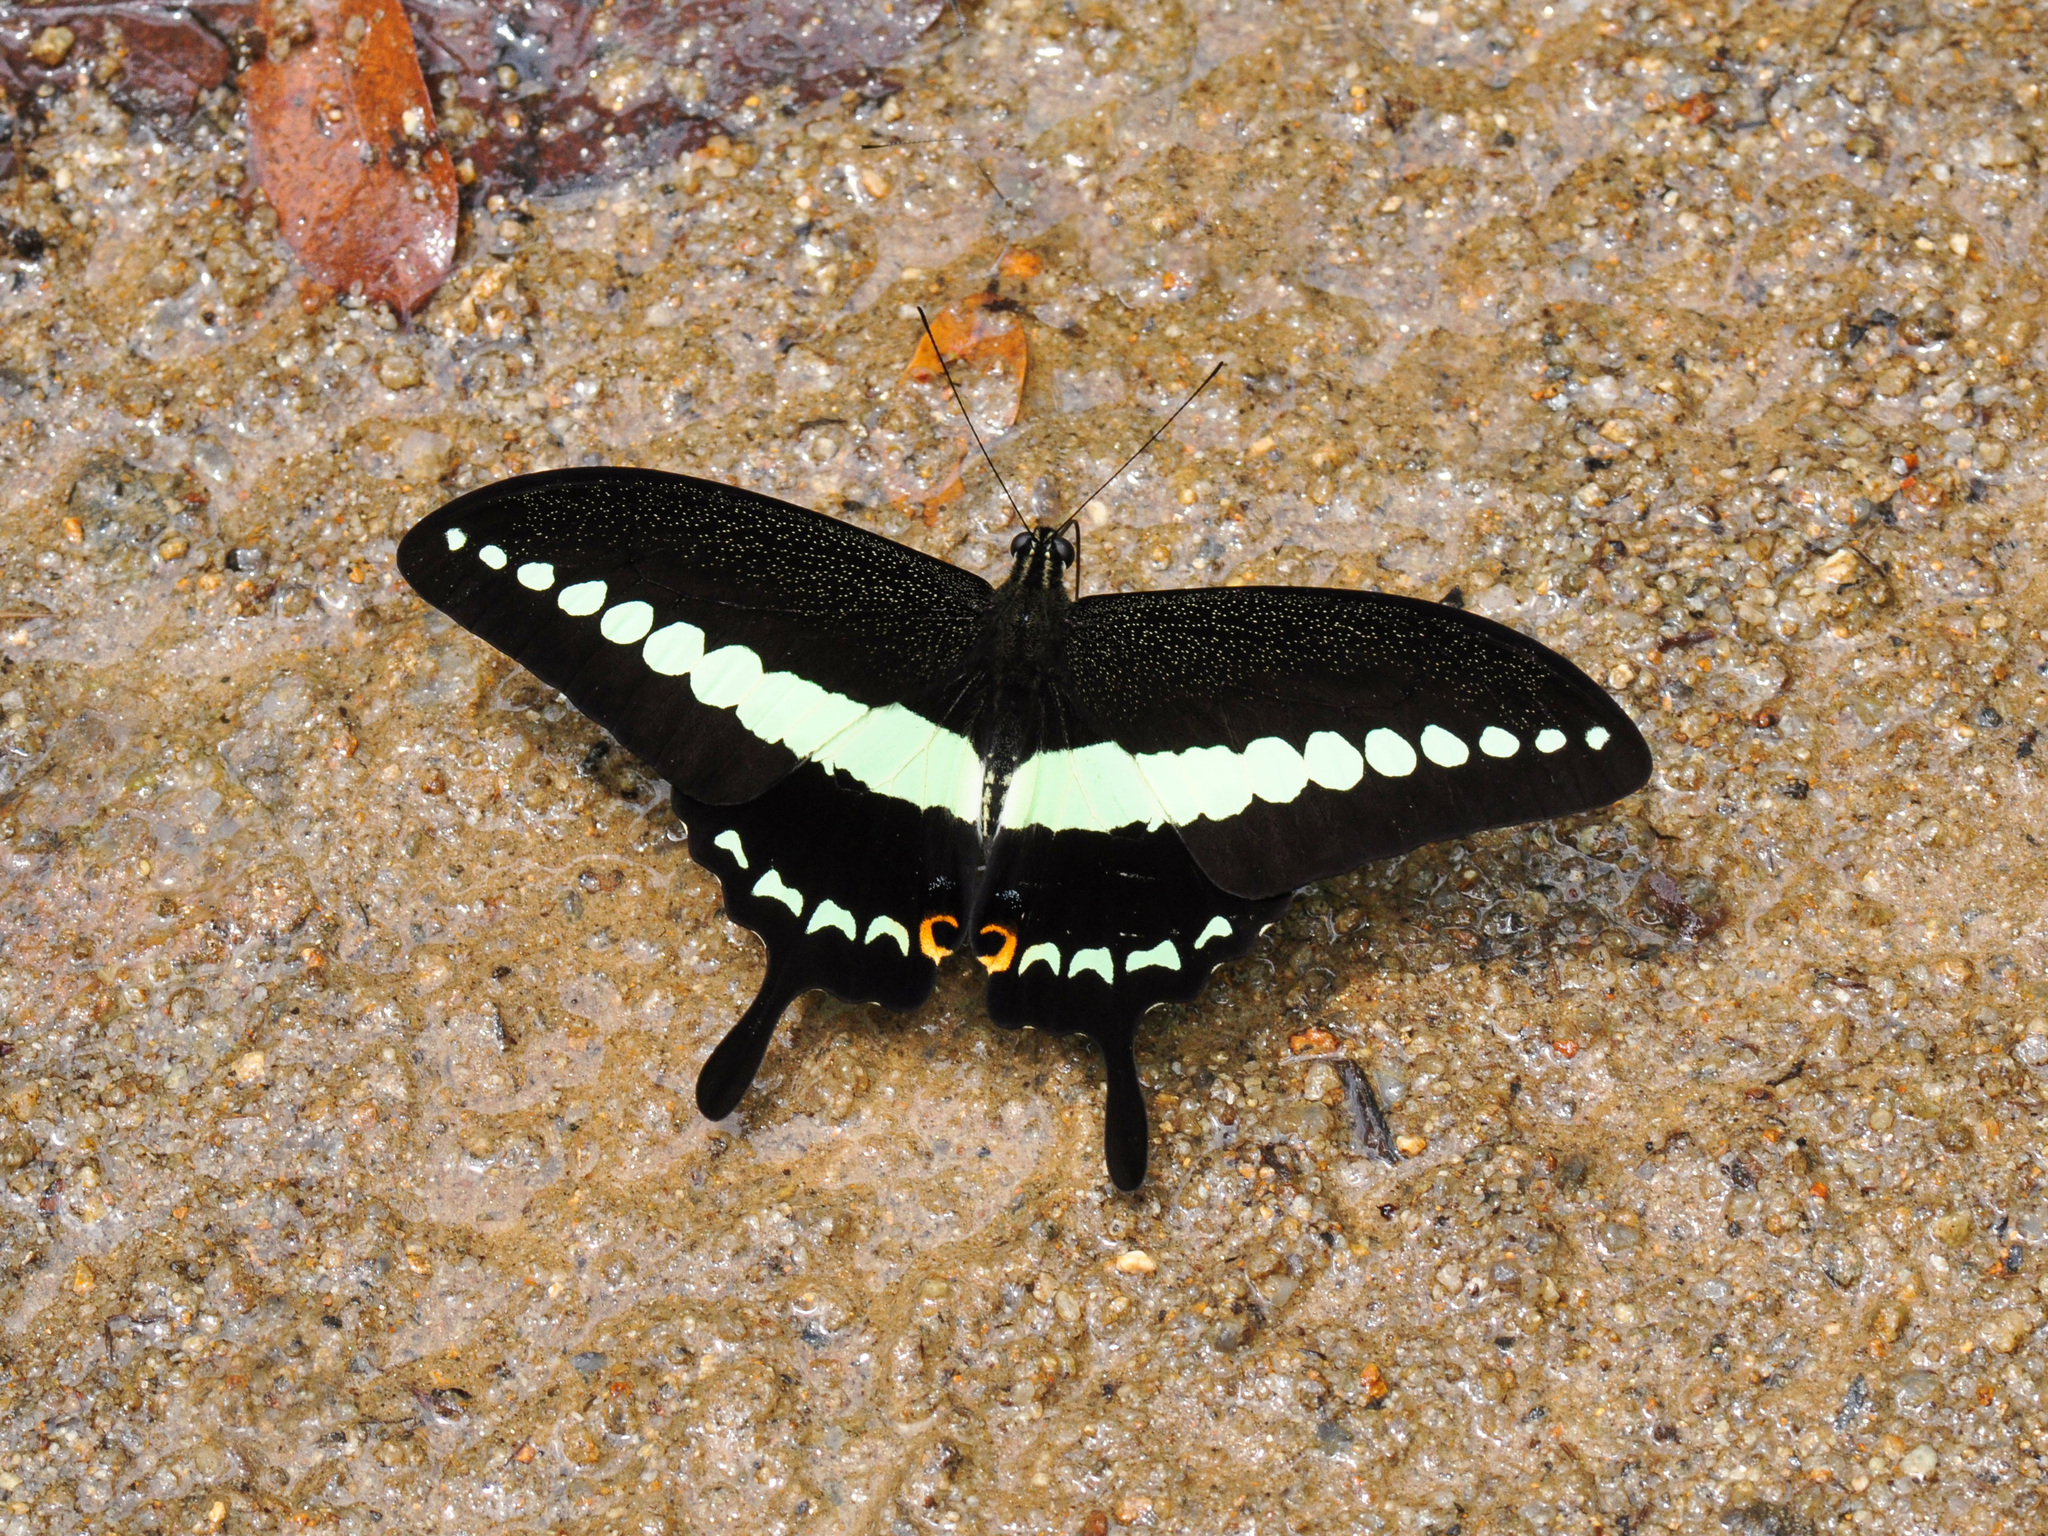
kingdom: Animalia
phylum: Arthropoda
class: Insecta
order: Lepidoptera
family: Papilionidae
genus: Papilio
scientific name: Papilio demolion
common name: Banded swallowtail
